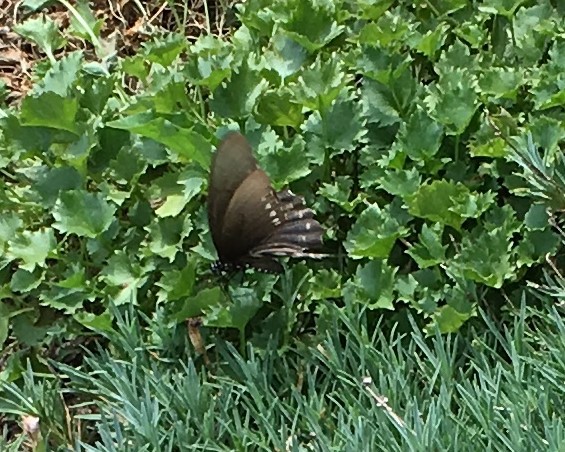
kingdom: Animalia
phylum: Arthropoda
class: Insecta
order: Lepidoptera
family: Papilionidae
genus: Battus
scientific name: Battus philenor
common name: Pipevine swallowtail
